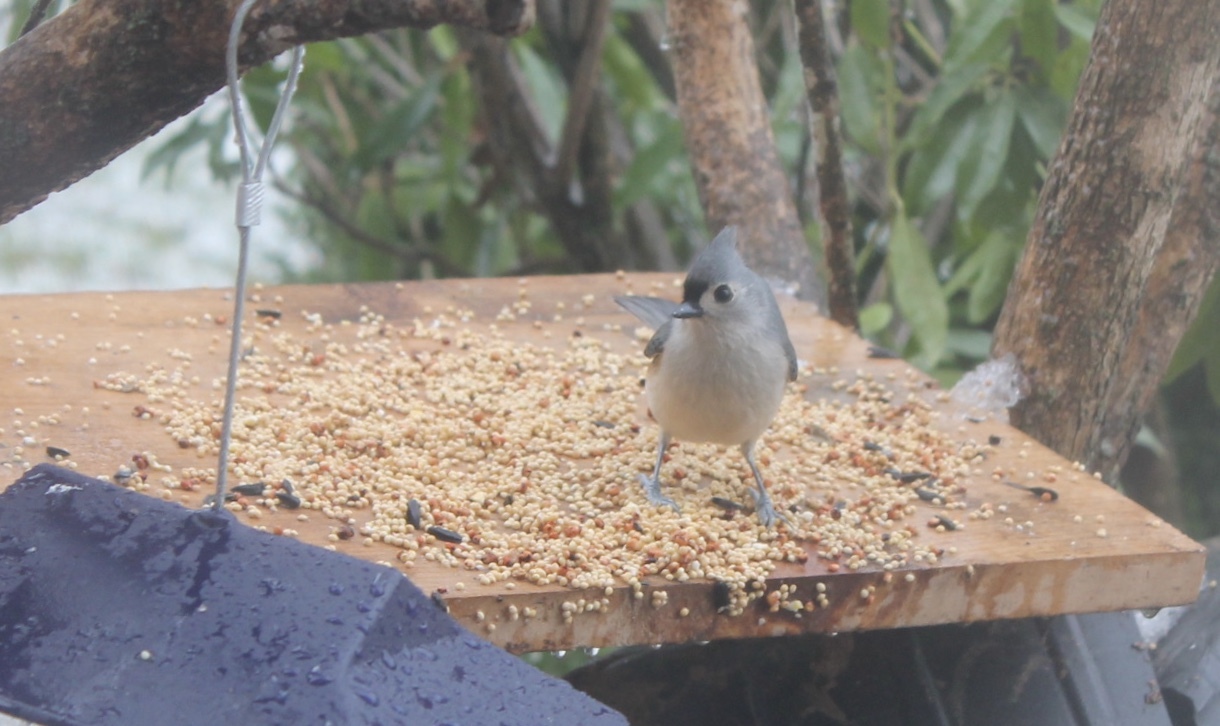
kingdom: Animalia
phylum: Chordata
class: Aves
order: Passeriformes
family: Paridae
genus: Baeolophus
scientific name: Baeolophus bicolor
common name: Tufted titmouse
